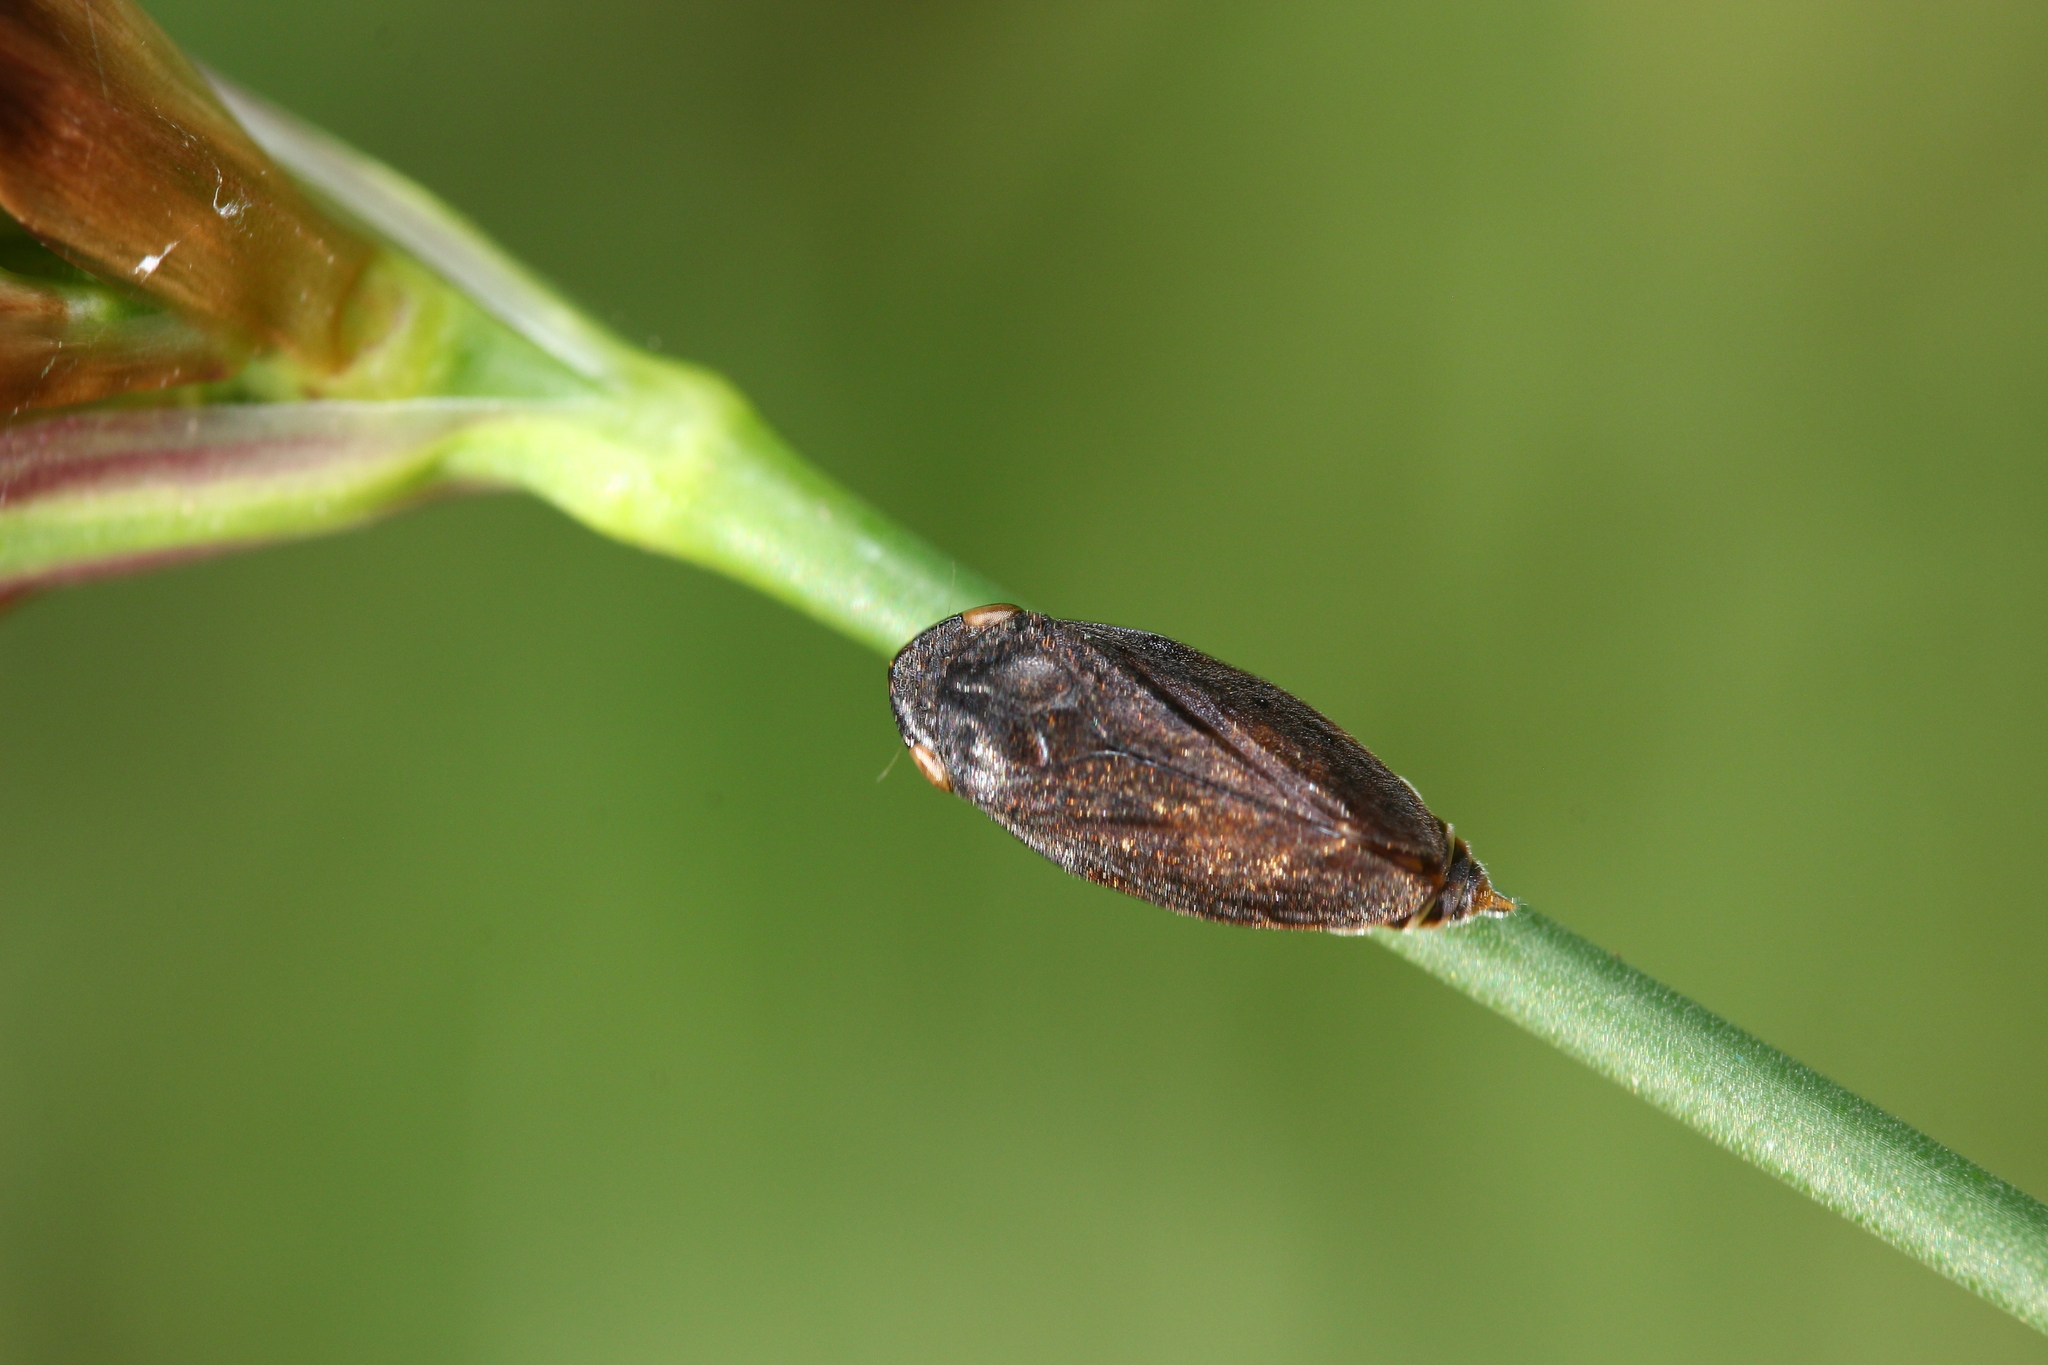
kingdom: Animalia
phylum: Arthropoda
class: Insecta
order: Hemiptera
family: Aphrophoridae
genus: Philaenus
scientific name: Philaenus spumarius
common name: Meadow spittlebug
